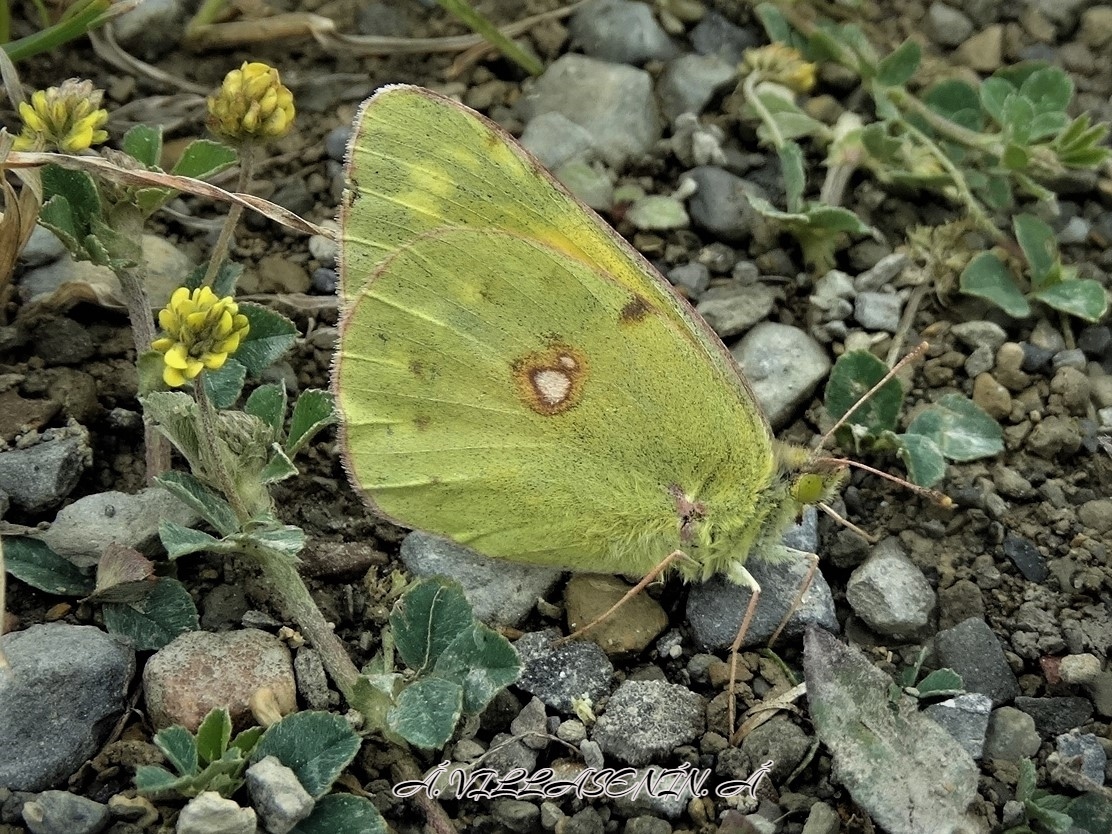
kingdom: Animalia
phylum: Arthropoda
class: Insecta
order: Lepidoptera
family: Pieridae
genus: Colias
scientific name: Colias croceus
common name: Clouded yellow
